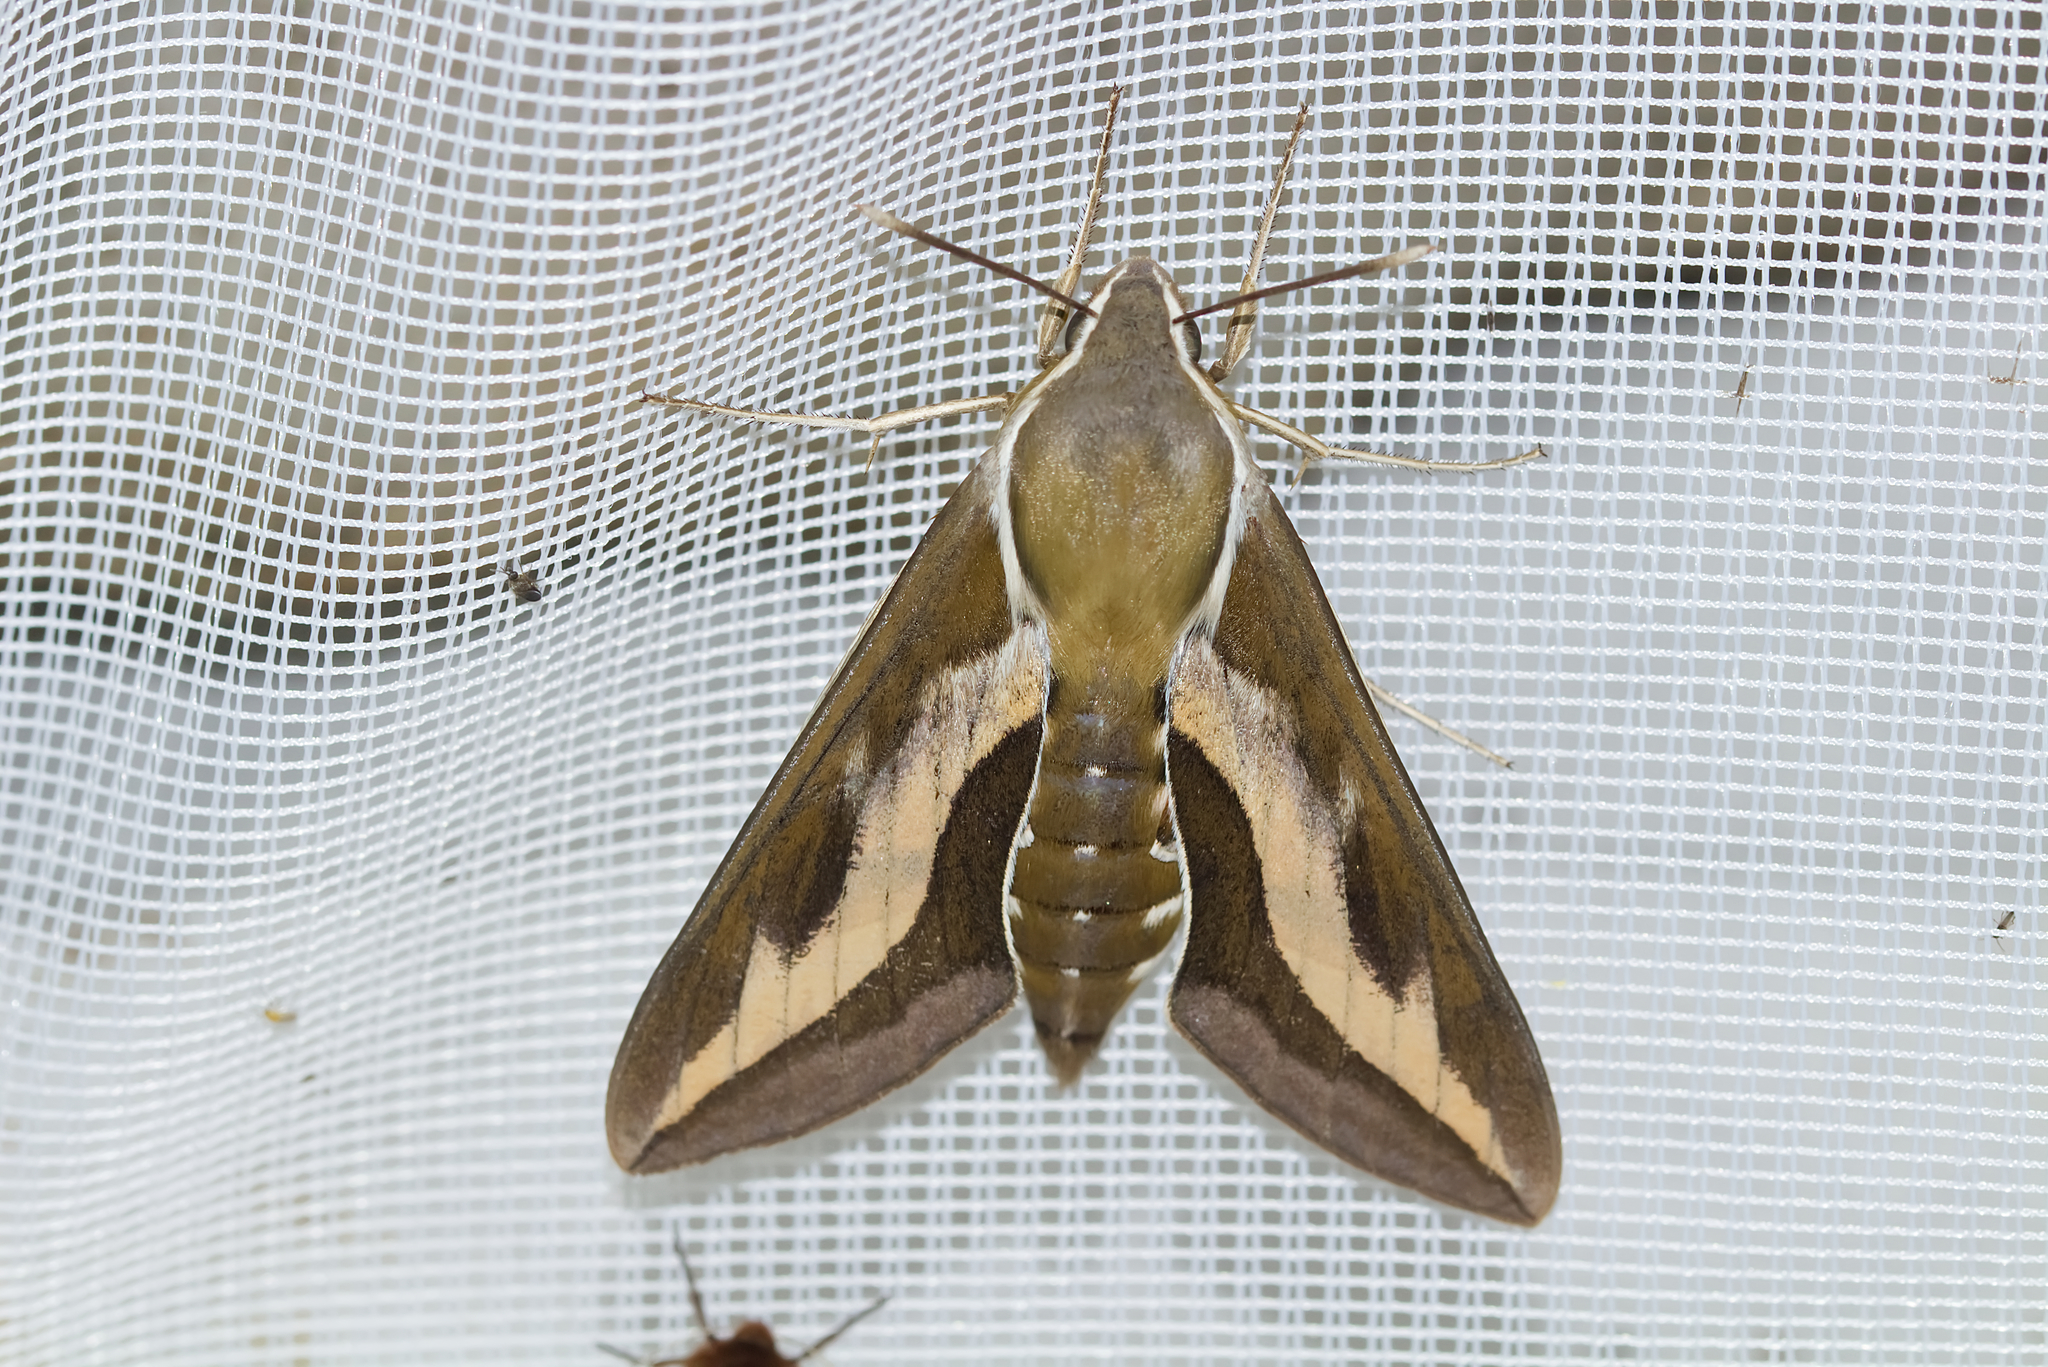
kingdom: Animalia
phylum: Arthropoda
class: Insecta
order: Lepidoptera
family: Sphingidae
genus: Hyles
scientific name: Hyles gallii
